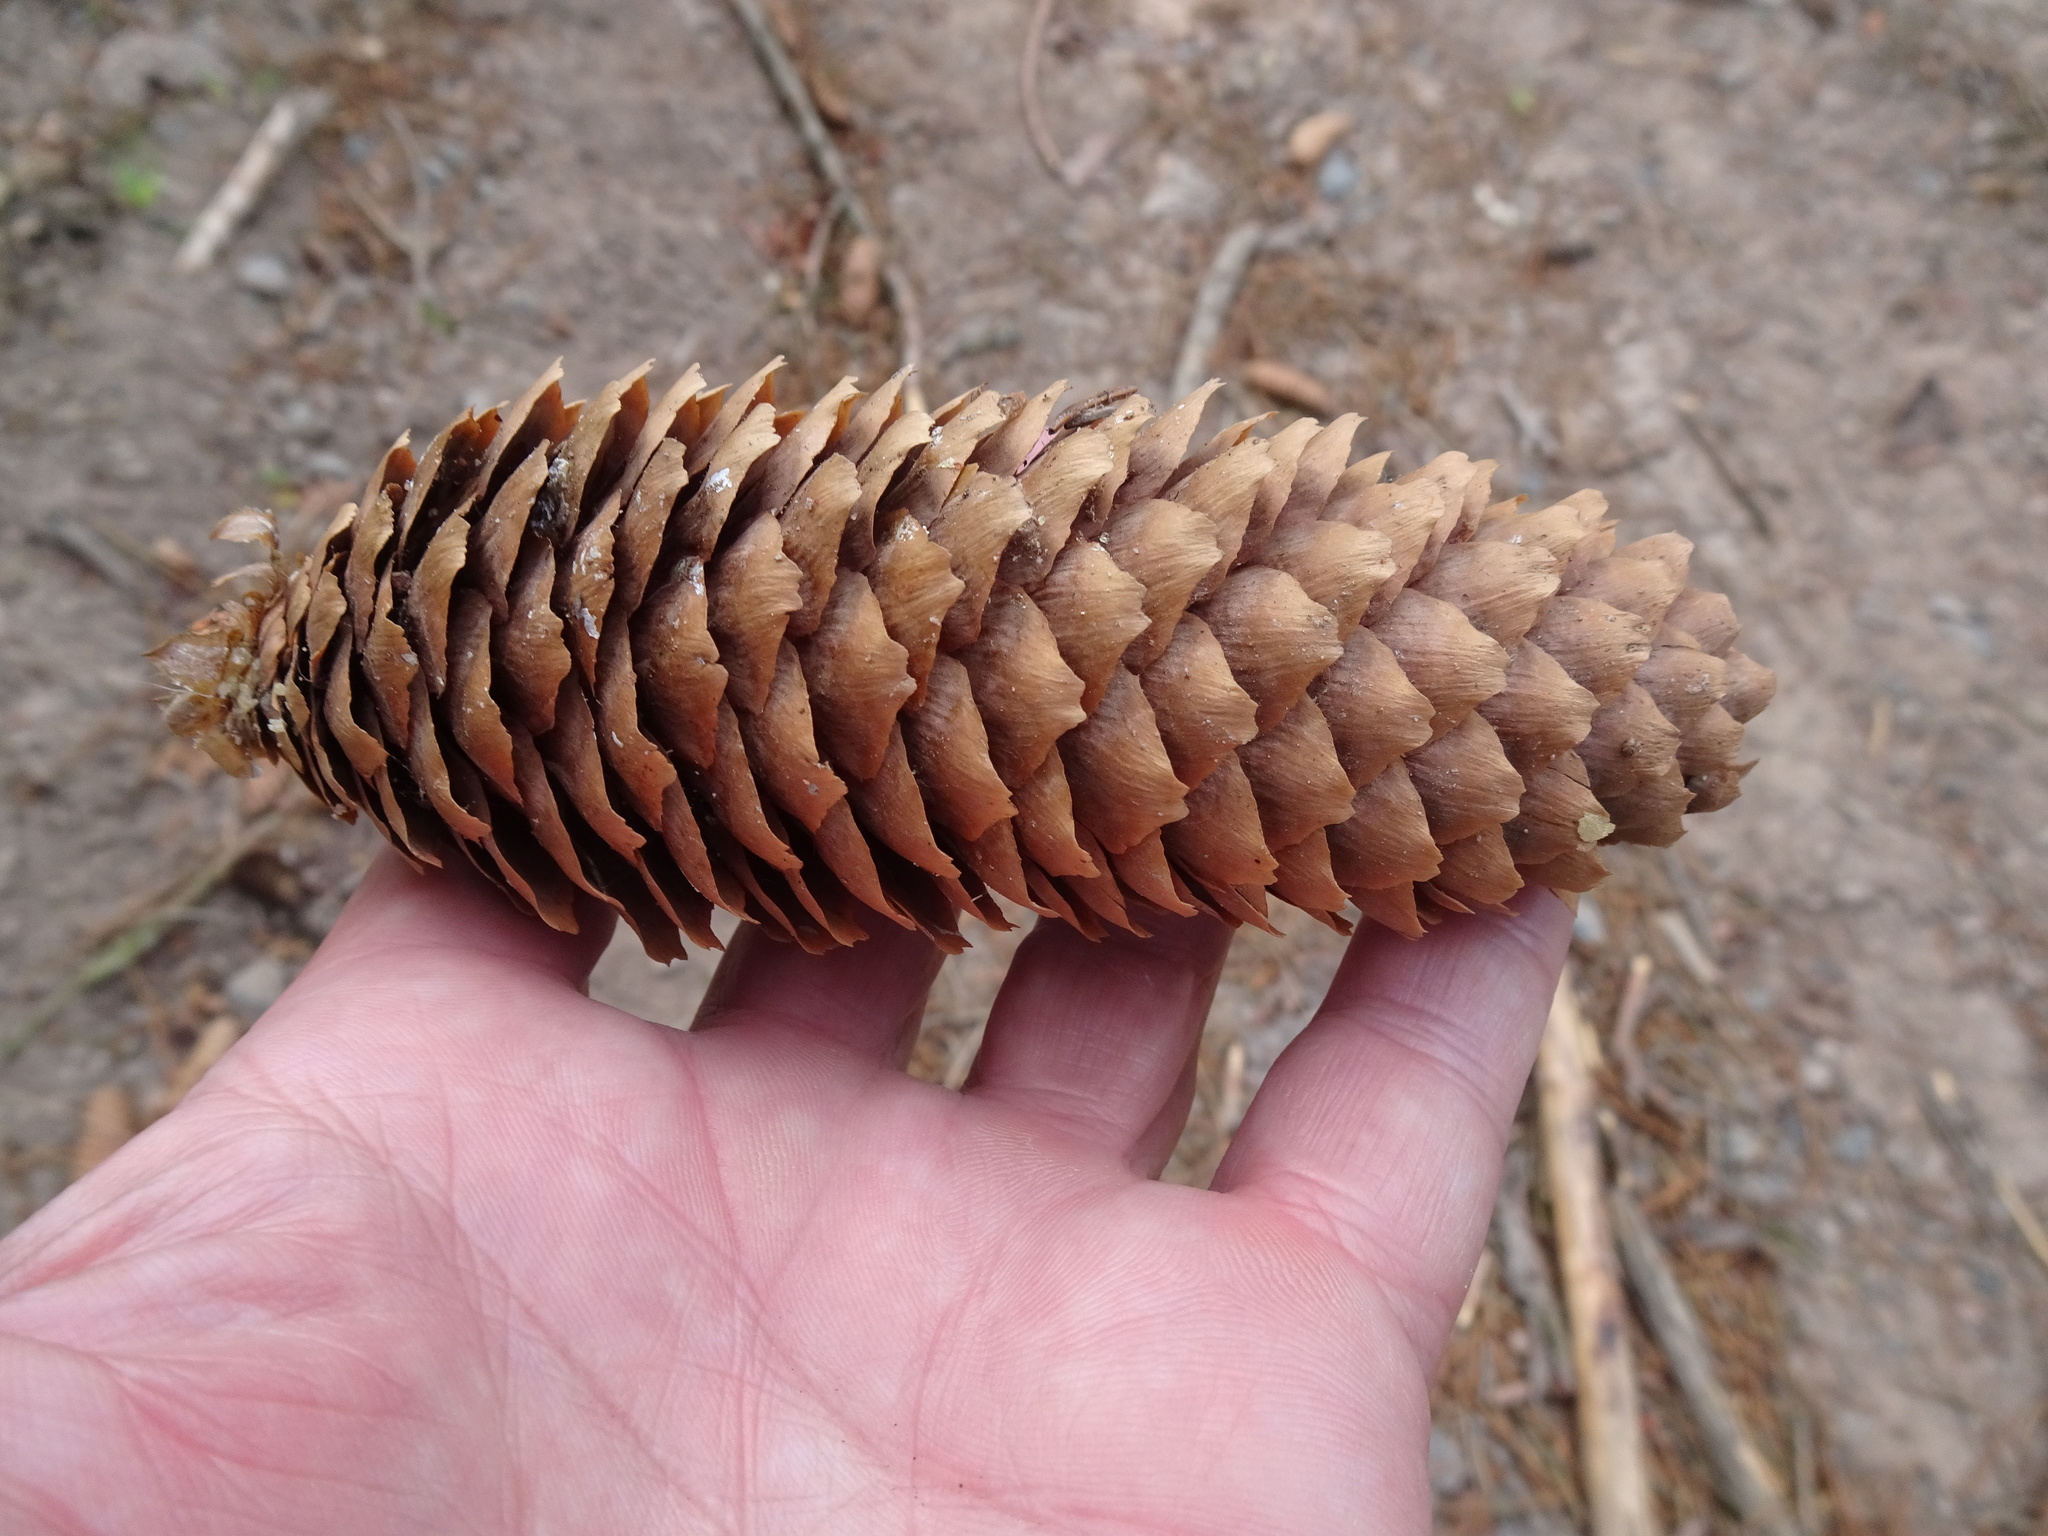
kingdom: Plantae
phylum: Tracheophyta
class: Pinopsida
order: Pinales
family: Pinaceae
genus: Picea
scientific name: Picea abies
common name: Norway spruce
